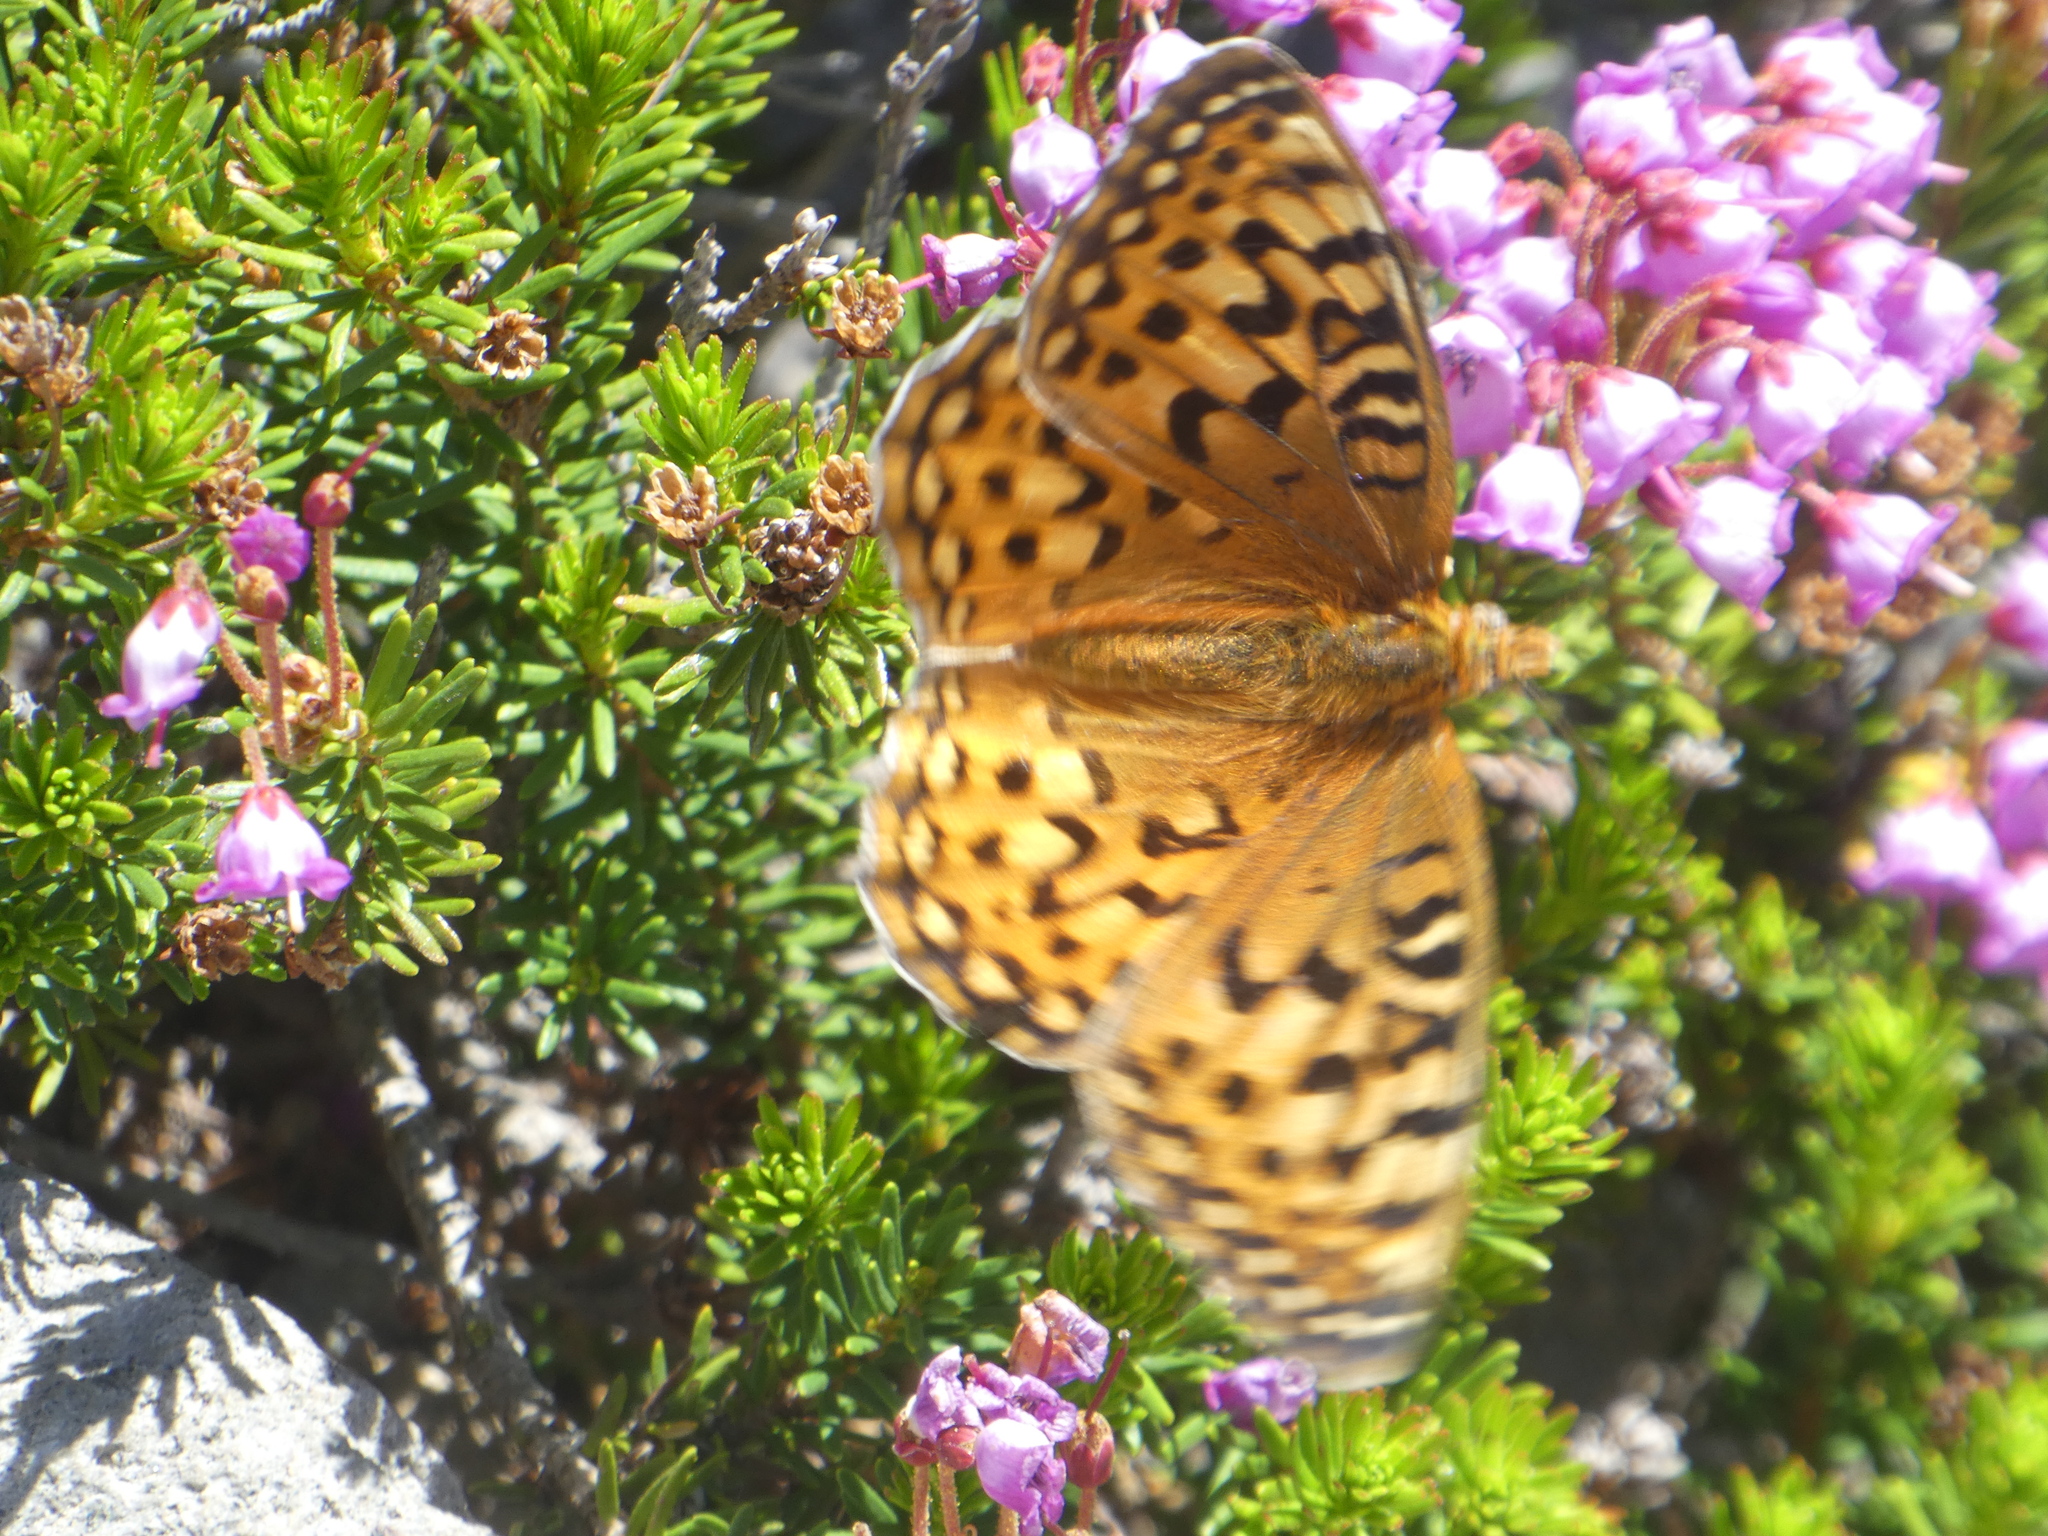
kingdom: Animalia
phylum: Arthropoda
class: Insecta
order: Lepidoptera
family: Nymphalidae
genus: Argynnis
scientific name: Argynnis coronis
